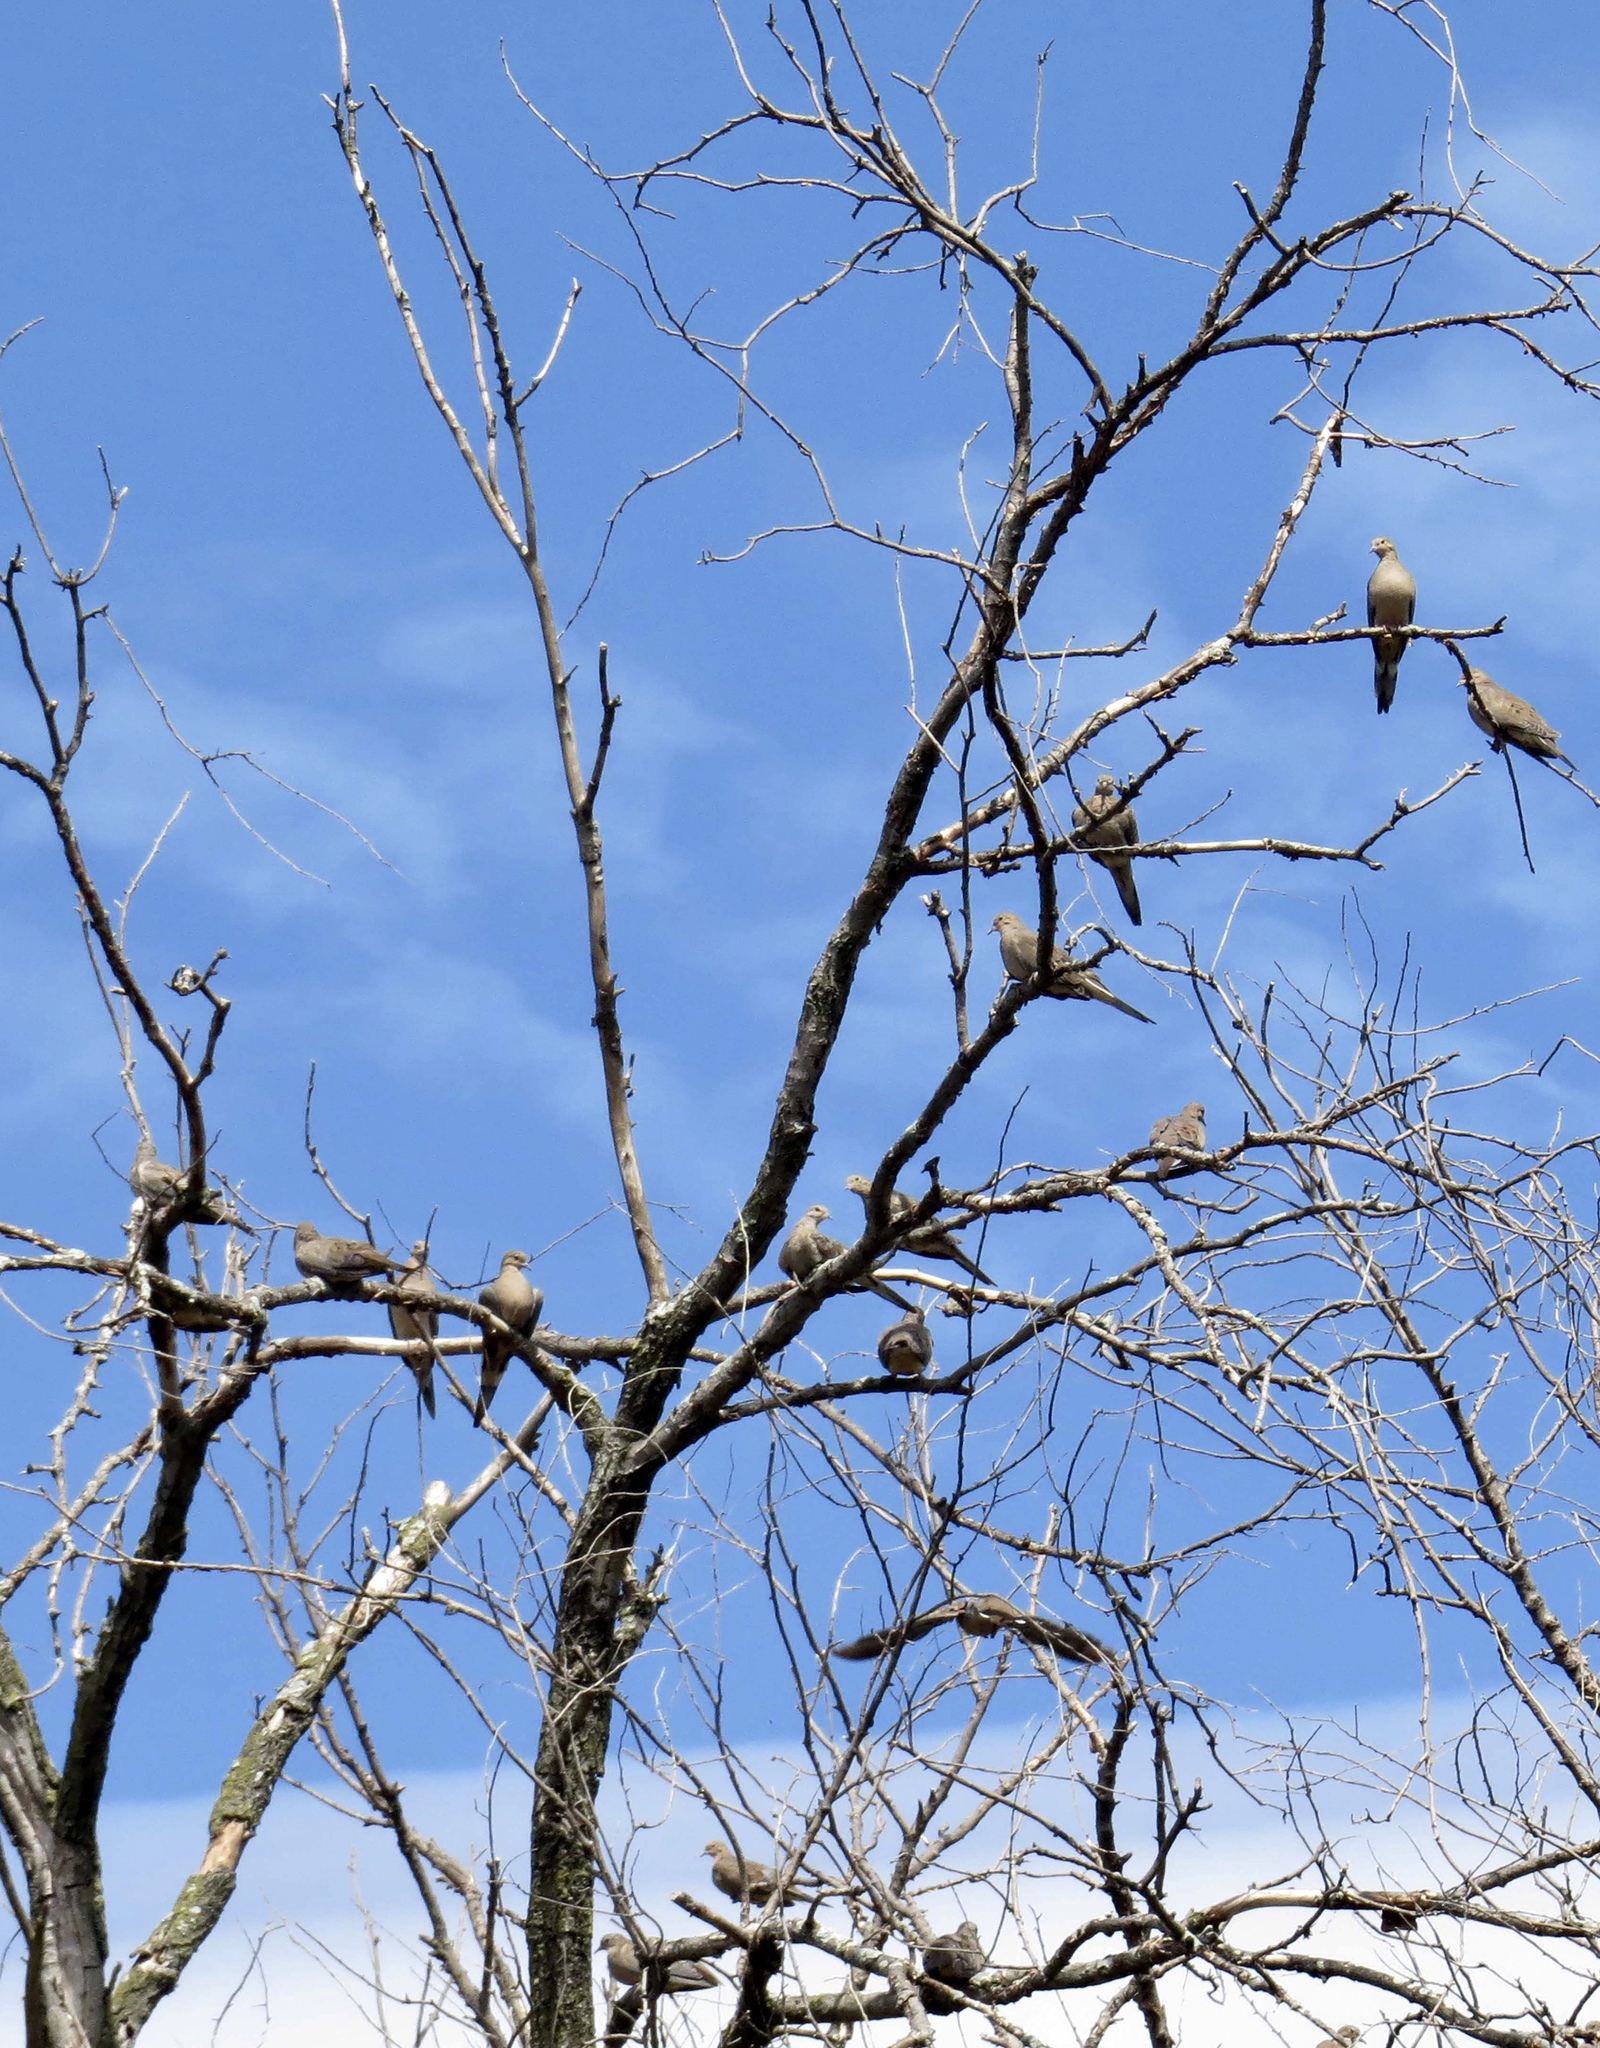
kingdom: Animalia
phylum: Chordata
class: Aves
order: Columbiformes
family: Columbidae
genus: Zenaida
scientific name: Zenaida macroura
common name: Mourning dove
